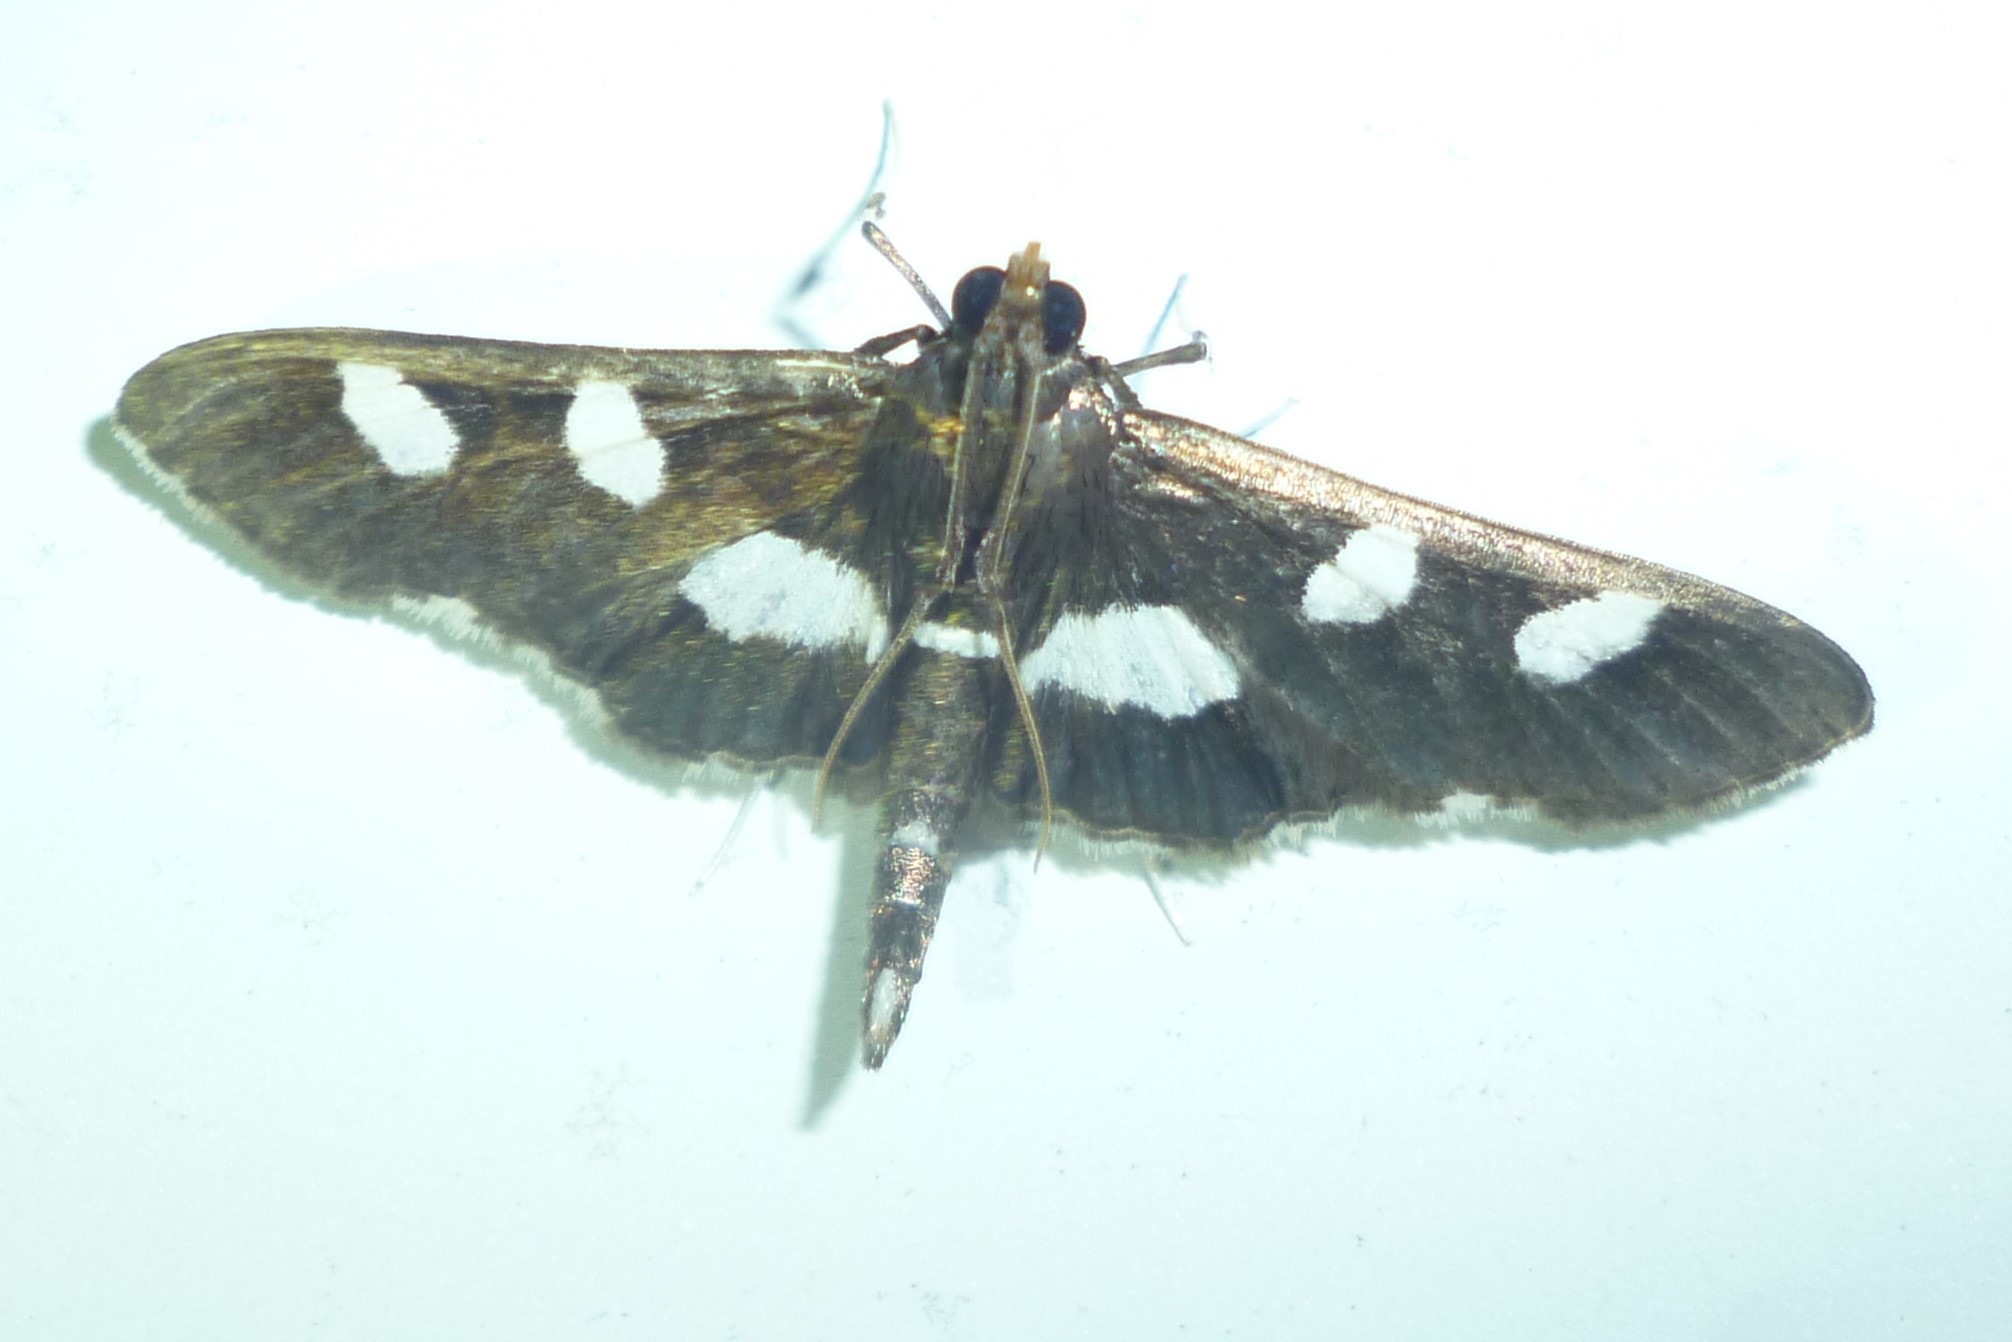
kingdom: Animalia
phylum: Arthropoda
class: Insecta
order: Lepidoptera
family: Crambidae
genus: Desmia
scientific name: Desmia
